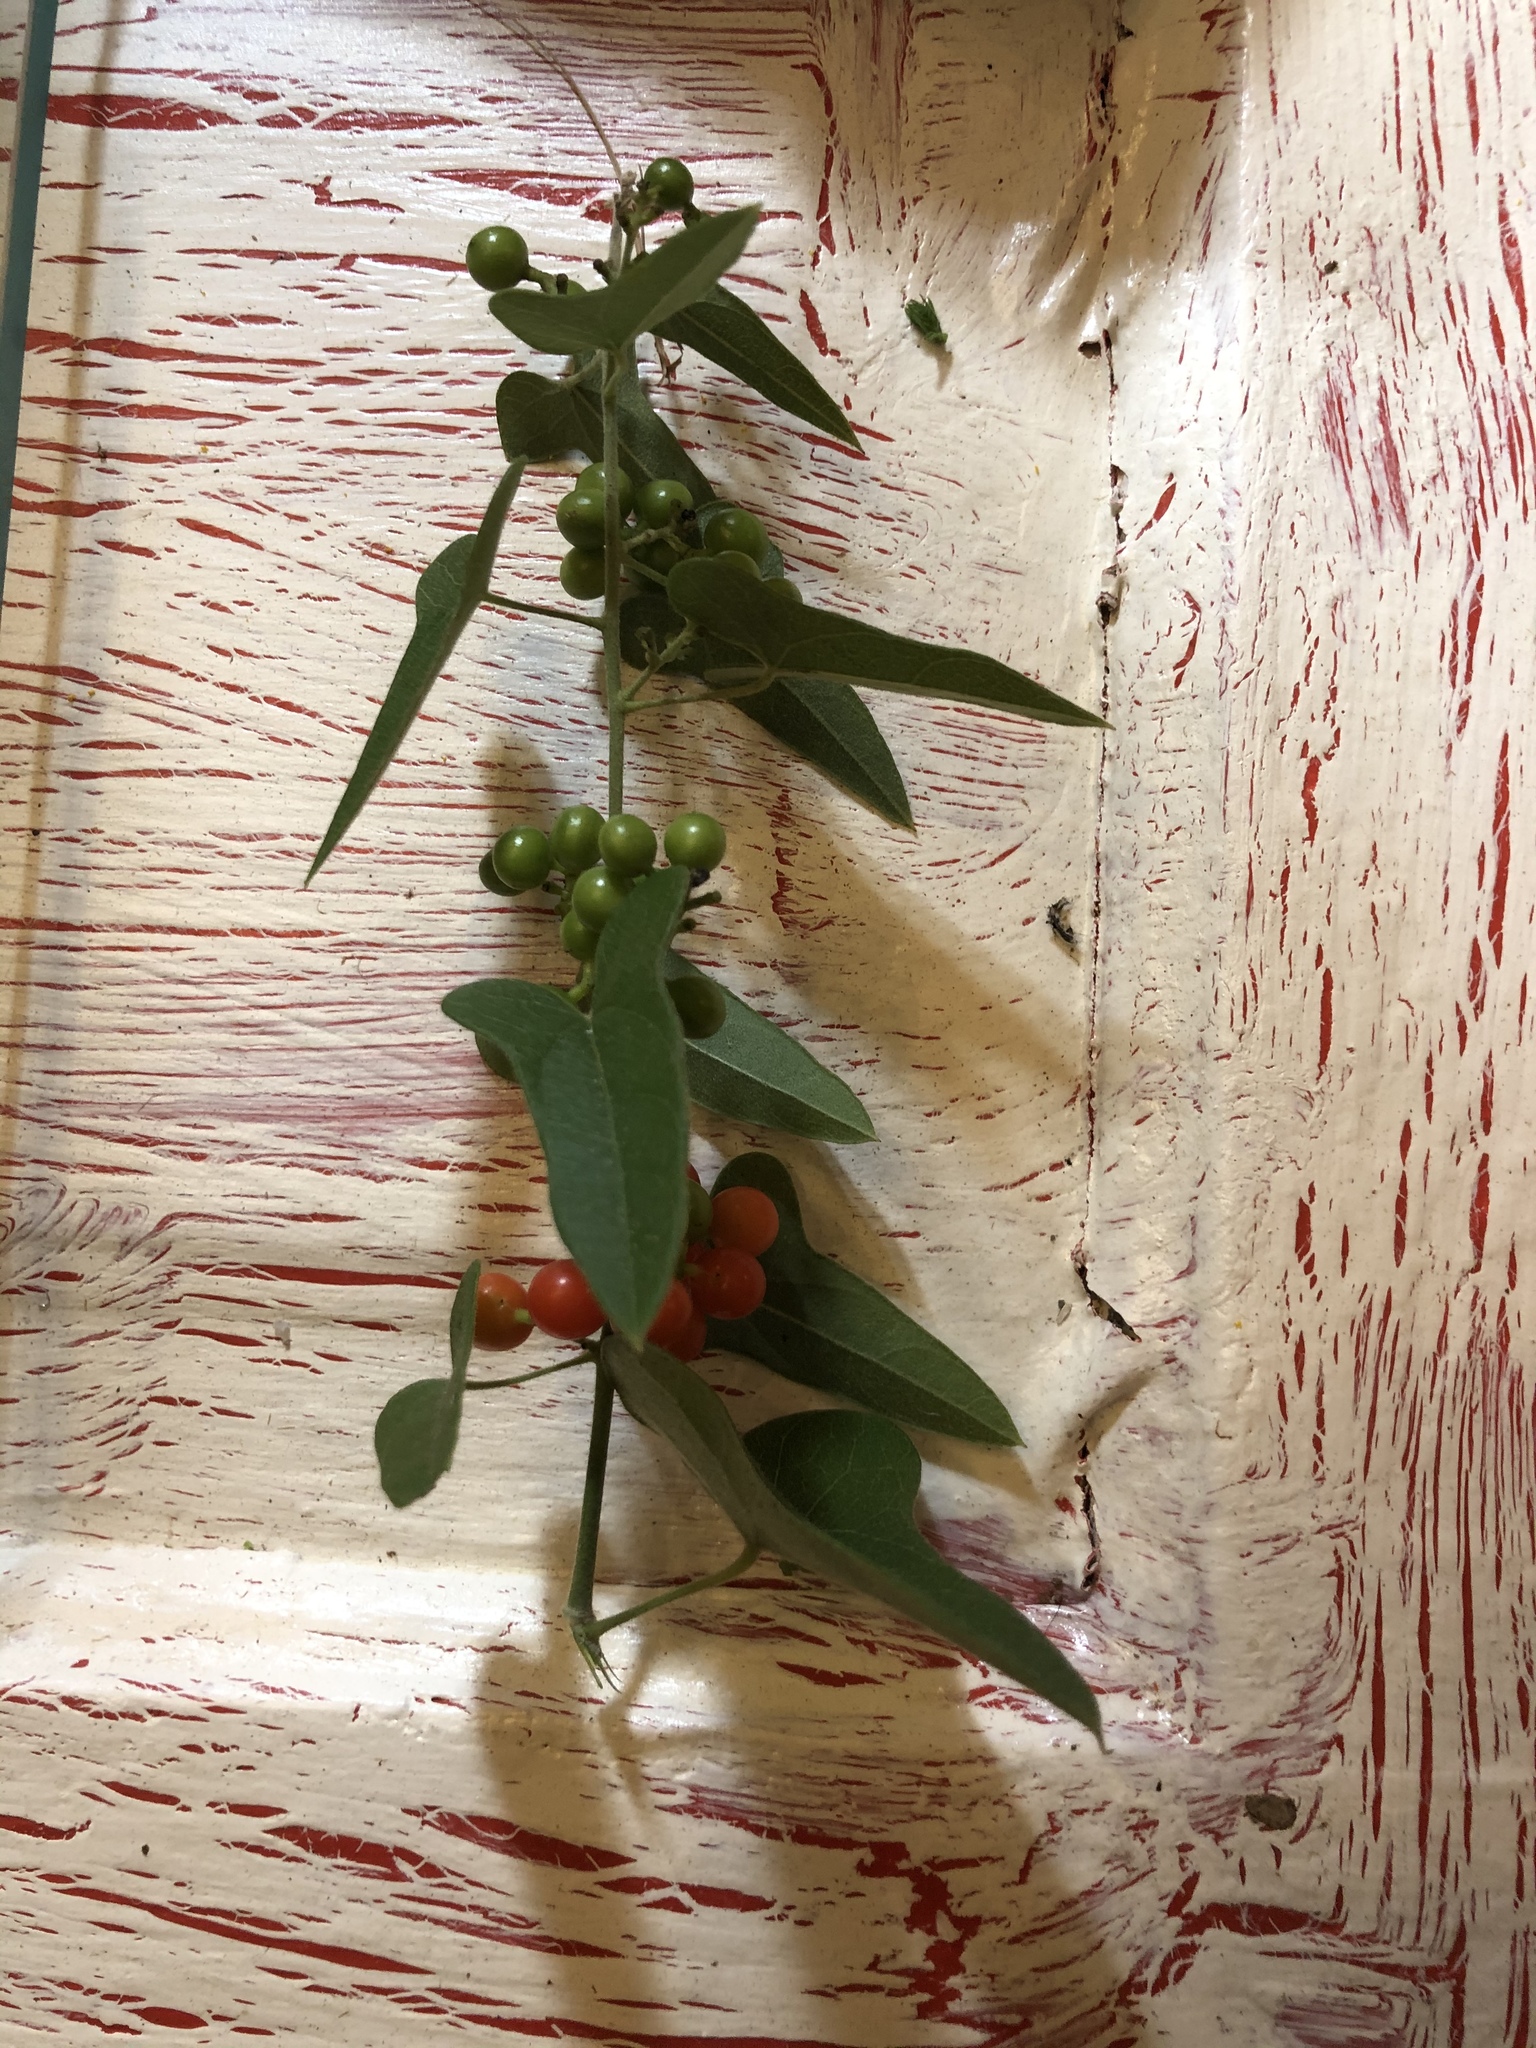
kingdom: Plantae
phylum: Tracheophyta
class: Magnoliopsida
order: Ranunculales
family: Menispermaceae
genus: Cocculus
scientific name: Cocculus carolinus
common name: Carolina moonseed
